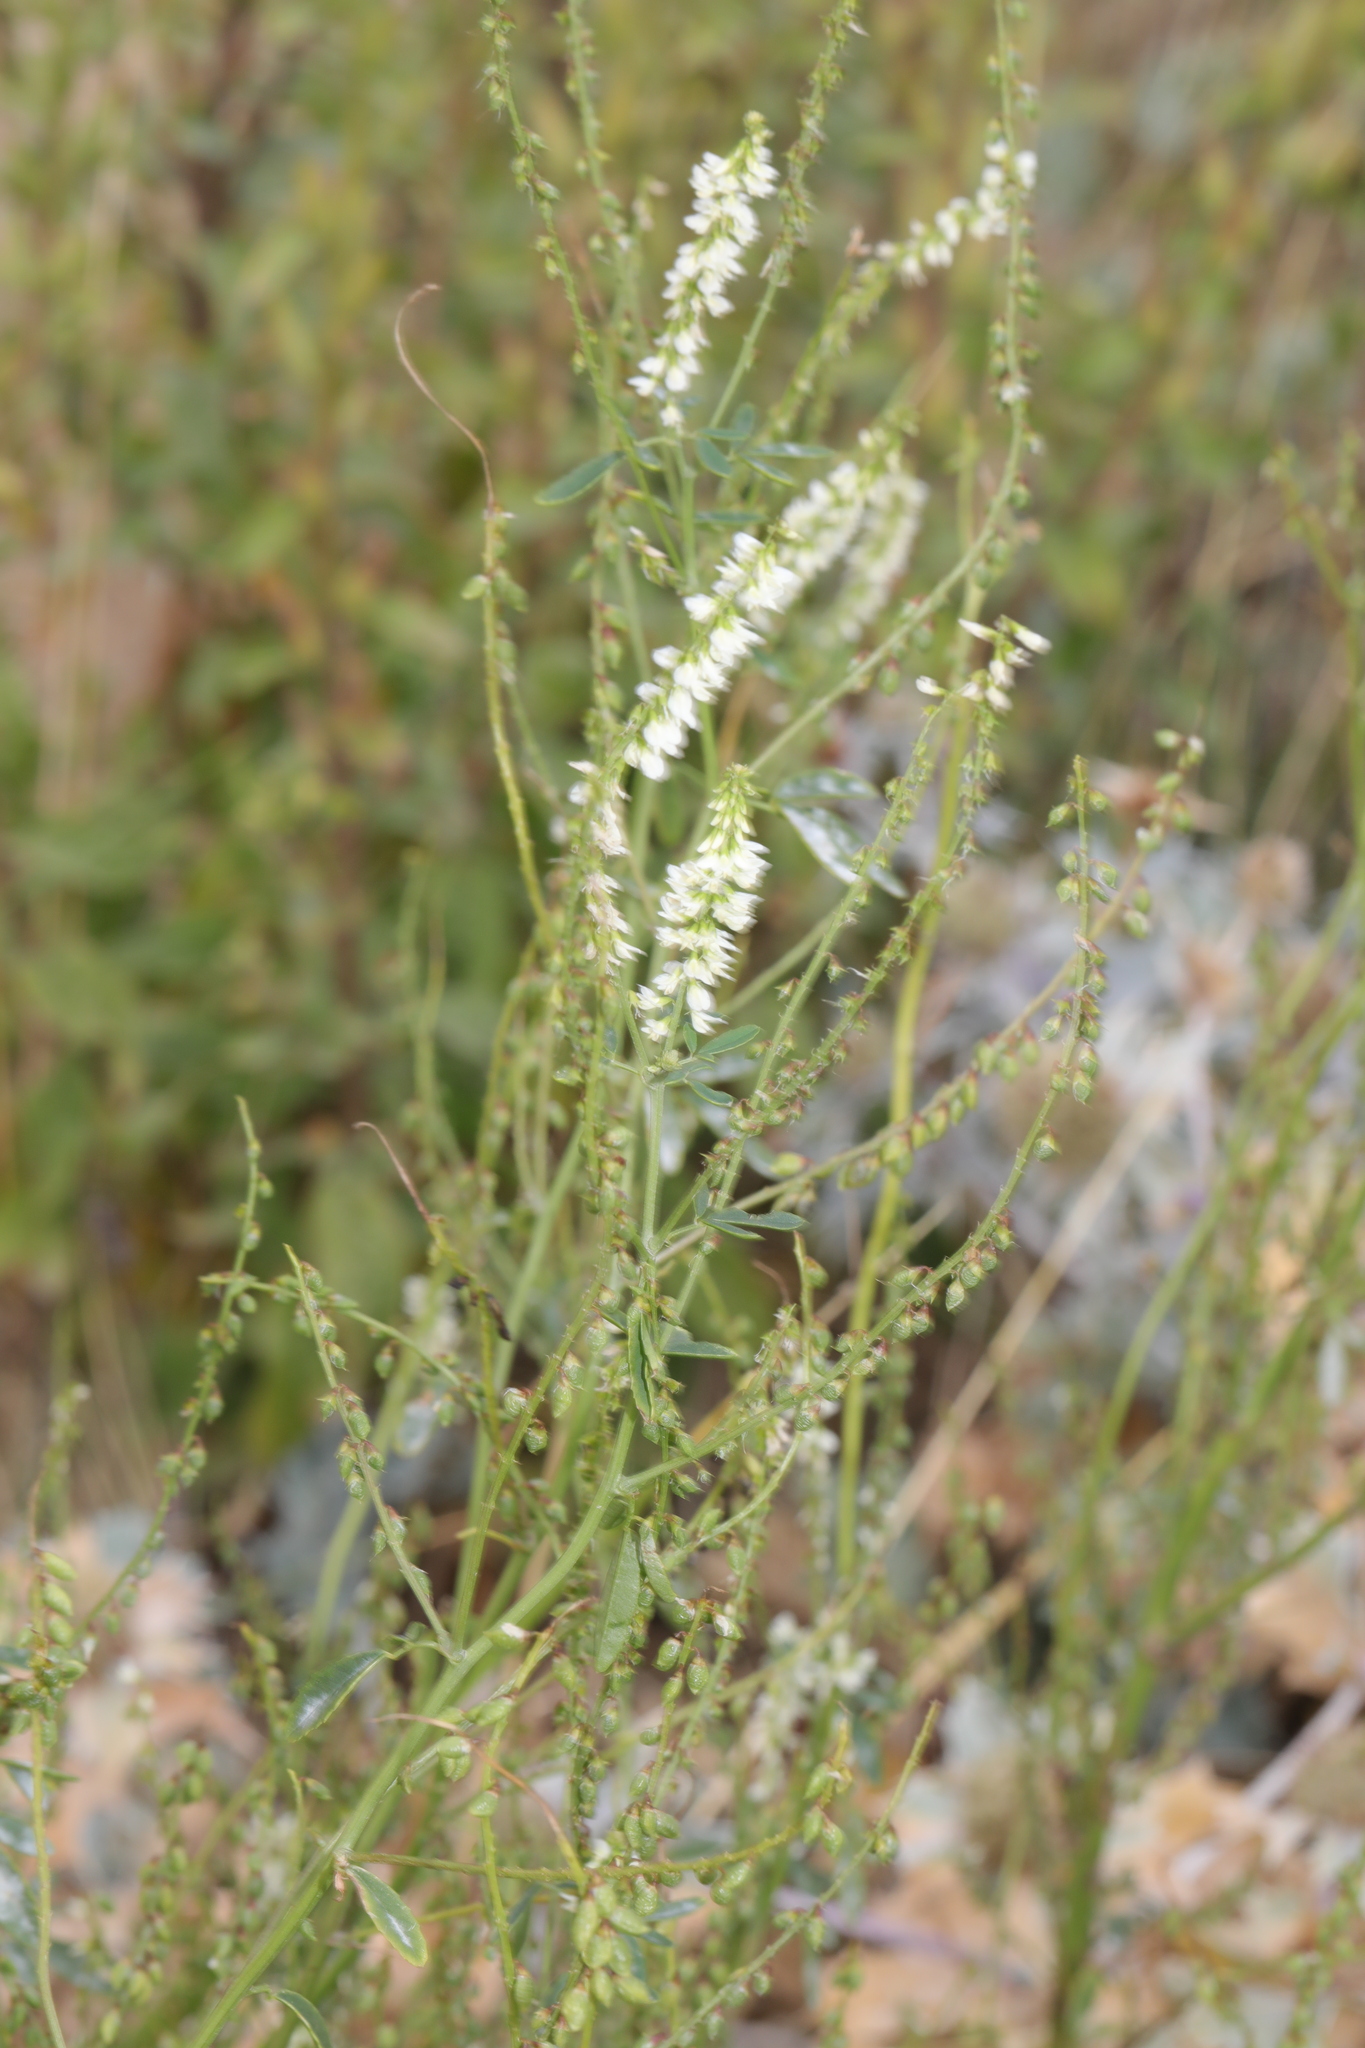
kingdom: Plantae
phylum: Tracheophyta
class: Magnoliopsida
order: Fabales
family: Fabaceae
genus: Melilotus
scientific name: Melilotus albus
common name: White melilot
